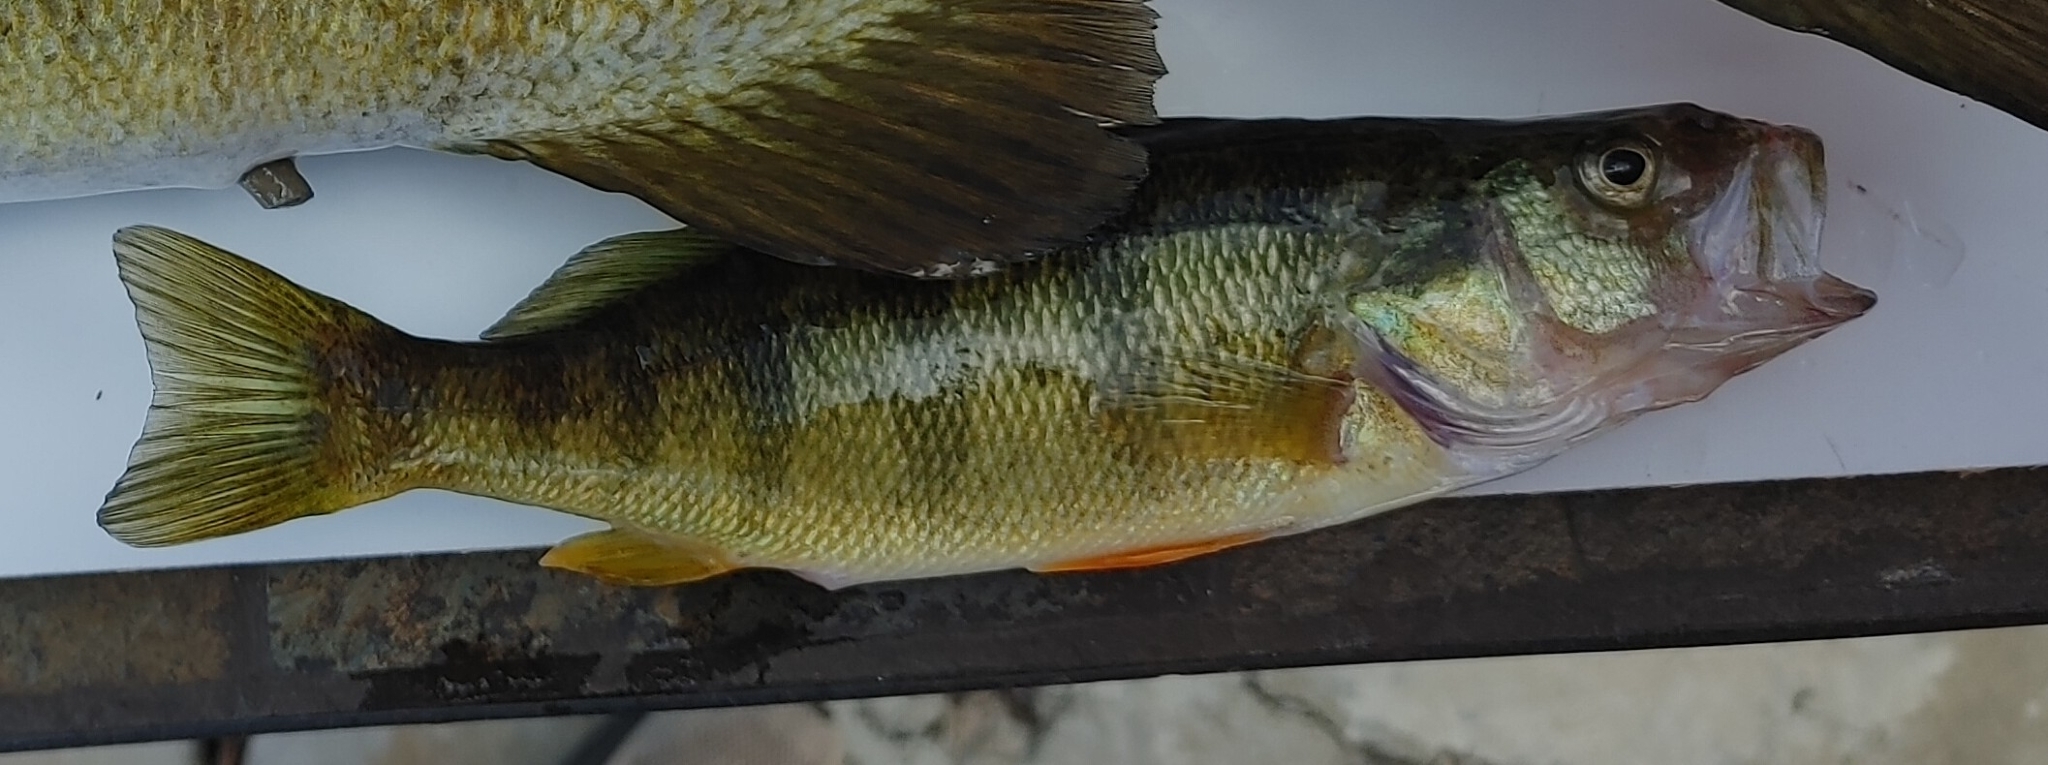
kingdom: Animalia
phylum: Chordata
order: Perciformes
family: Percidae
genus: Perca
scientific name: Perca flavescens
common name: Yellow perch
